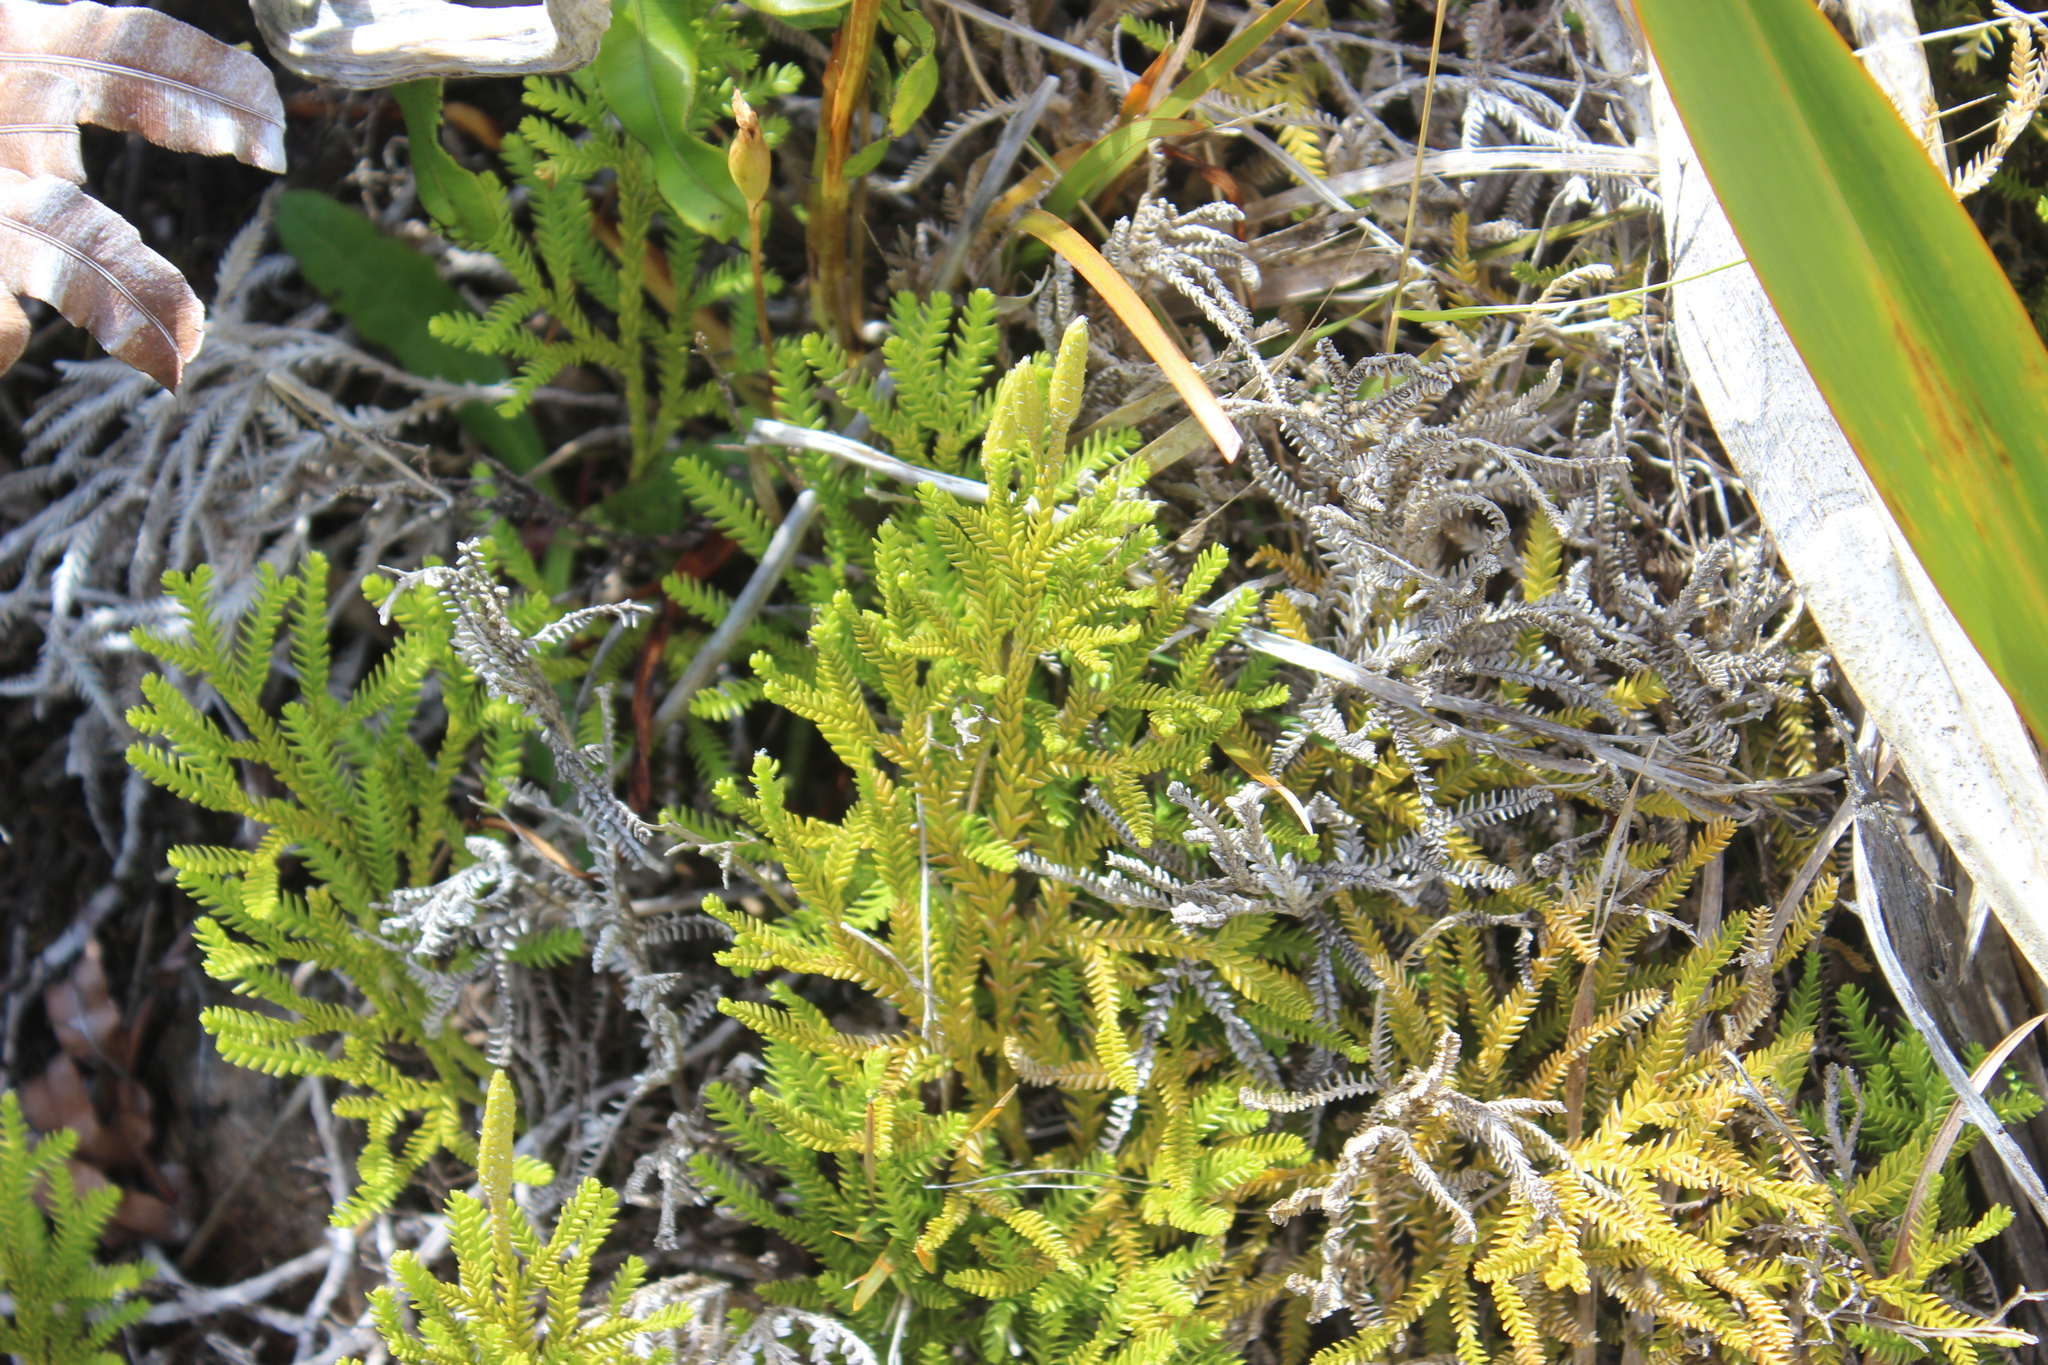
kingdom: Plantae
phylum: Tracheophyta
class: Lycopodiopsida
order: Lycopodiales
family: Lycopodiaceae
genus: Diphasium
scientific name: Diphasium scariosum
